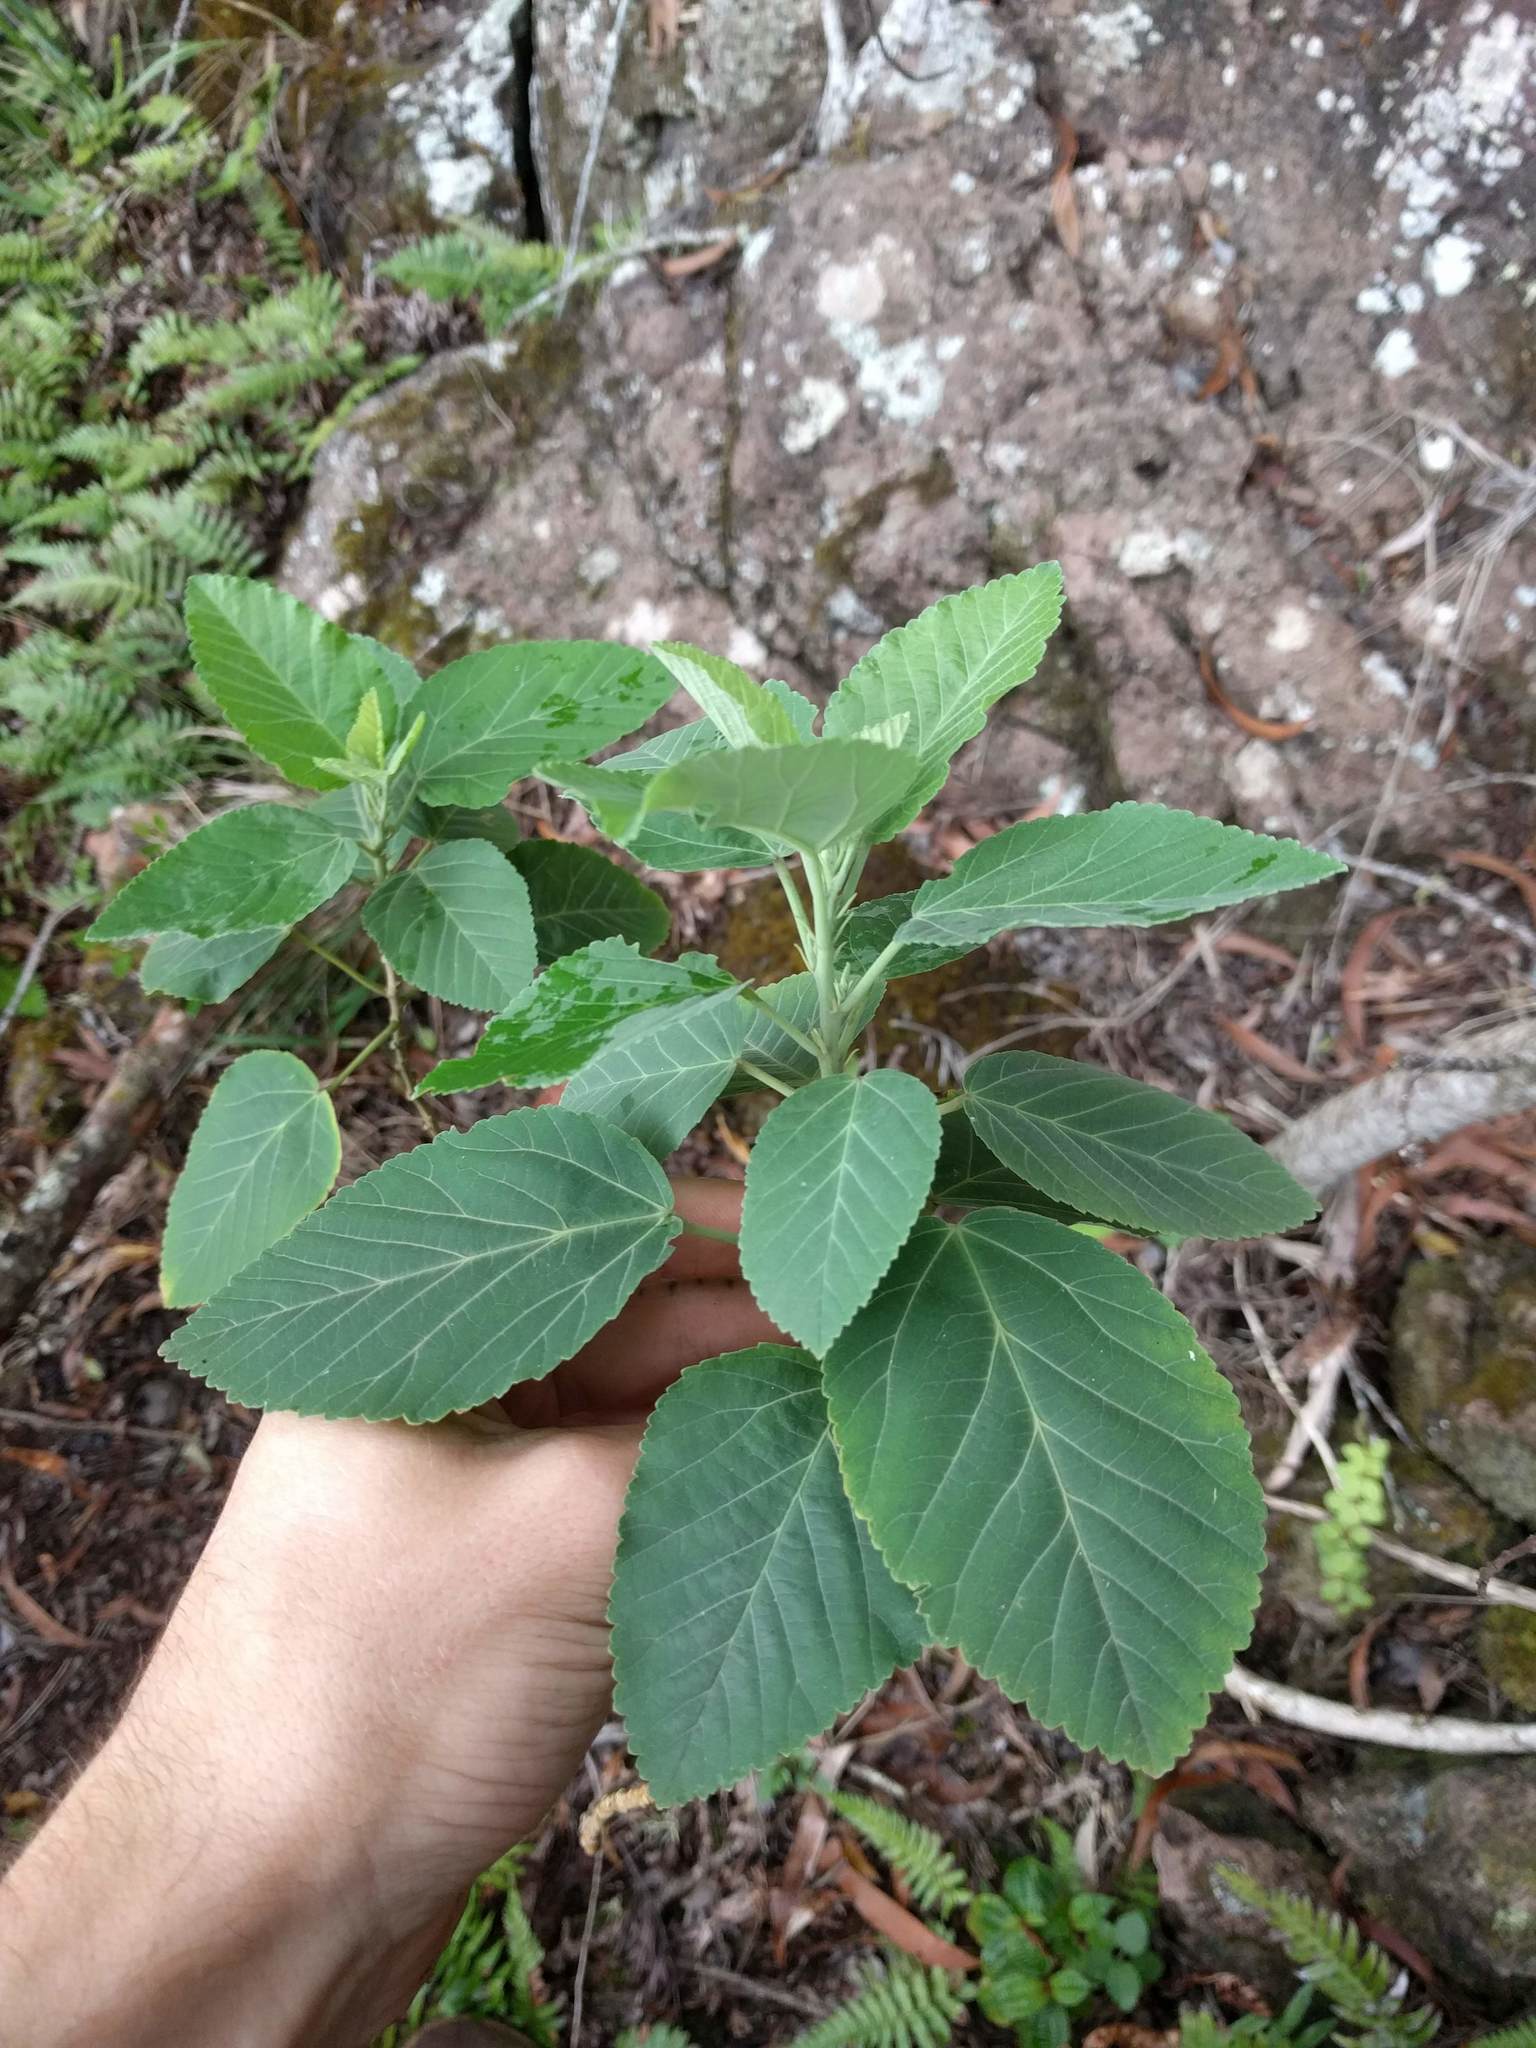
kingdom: Plantae
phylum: Tracheophyta
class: Magnoliopsida
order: Malvales
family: Malvaceae
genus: Sida
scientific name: Sida fallax
